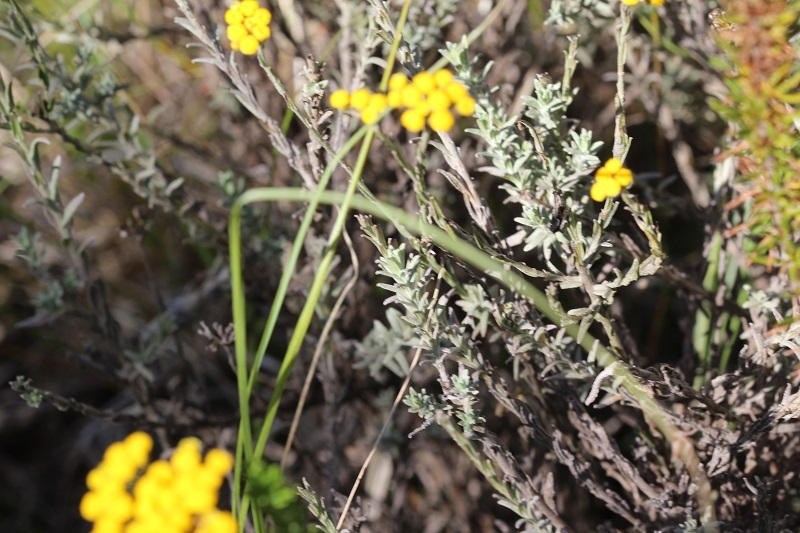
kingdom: Plantae
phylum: Tracheophyta
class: Magnoliopsida
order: Asterales
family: Asteraceae
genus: Helichrysum
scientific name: Helichrysum anomalum
